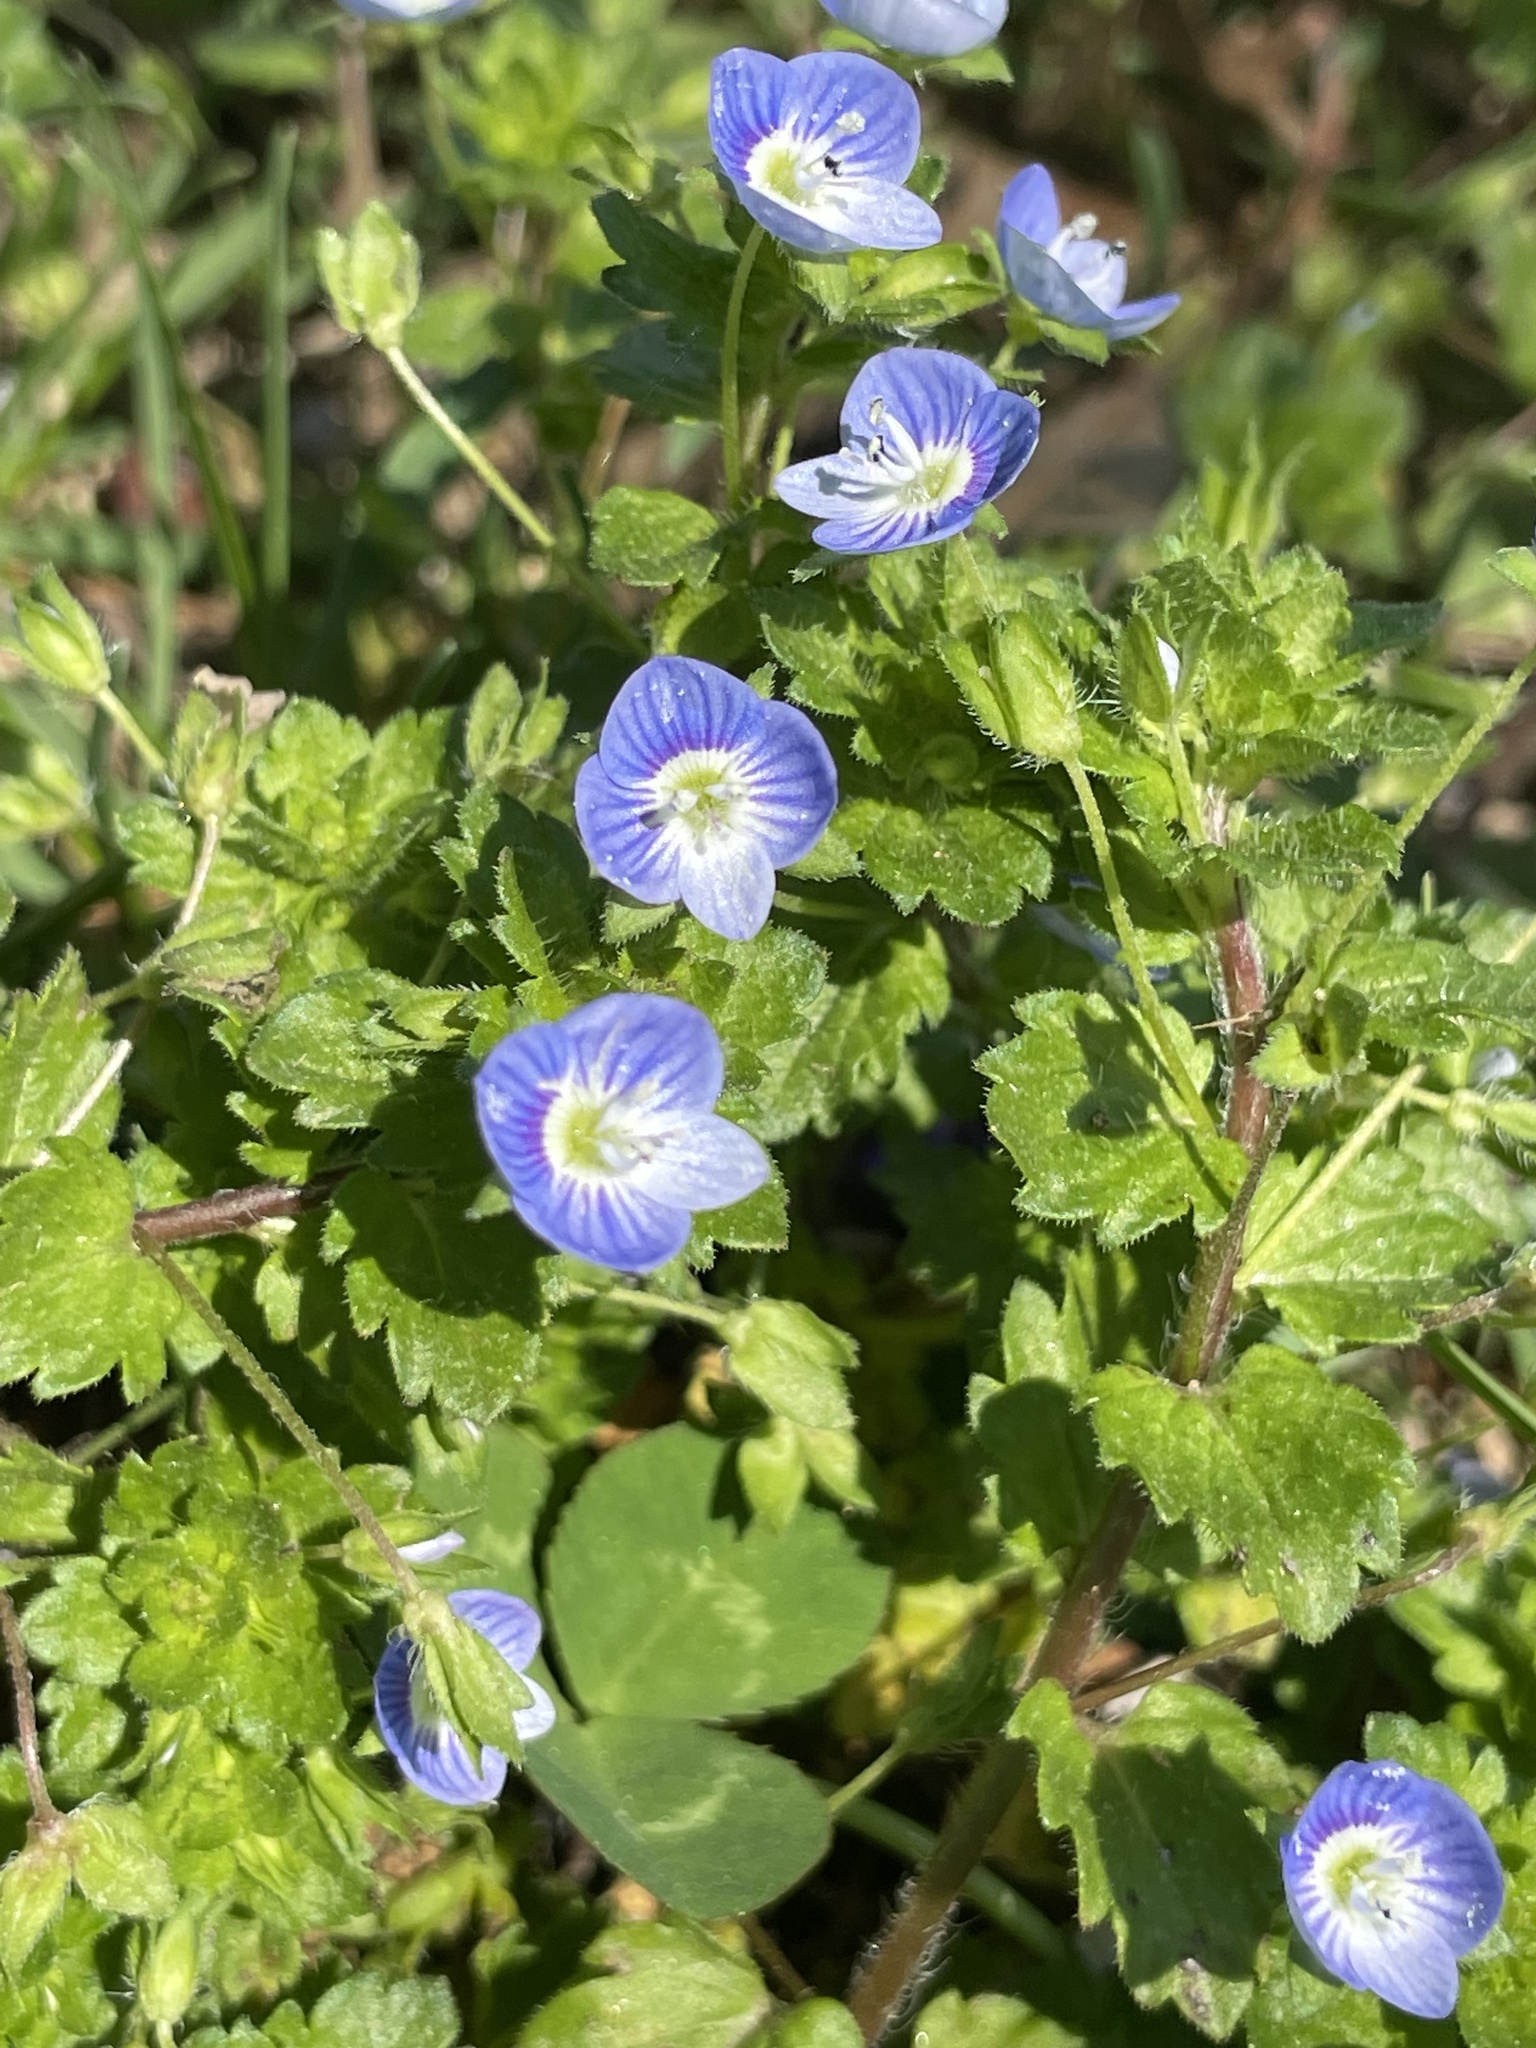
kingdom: Plantae
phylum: Tracheophyta
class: Magnoliopsida
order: Lamiales
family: Plantaginaceae
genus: Veronica
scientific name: Veronica persica
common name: Common field-speedwell
